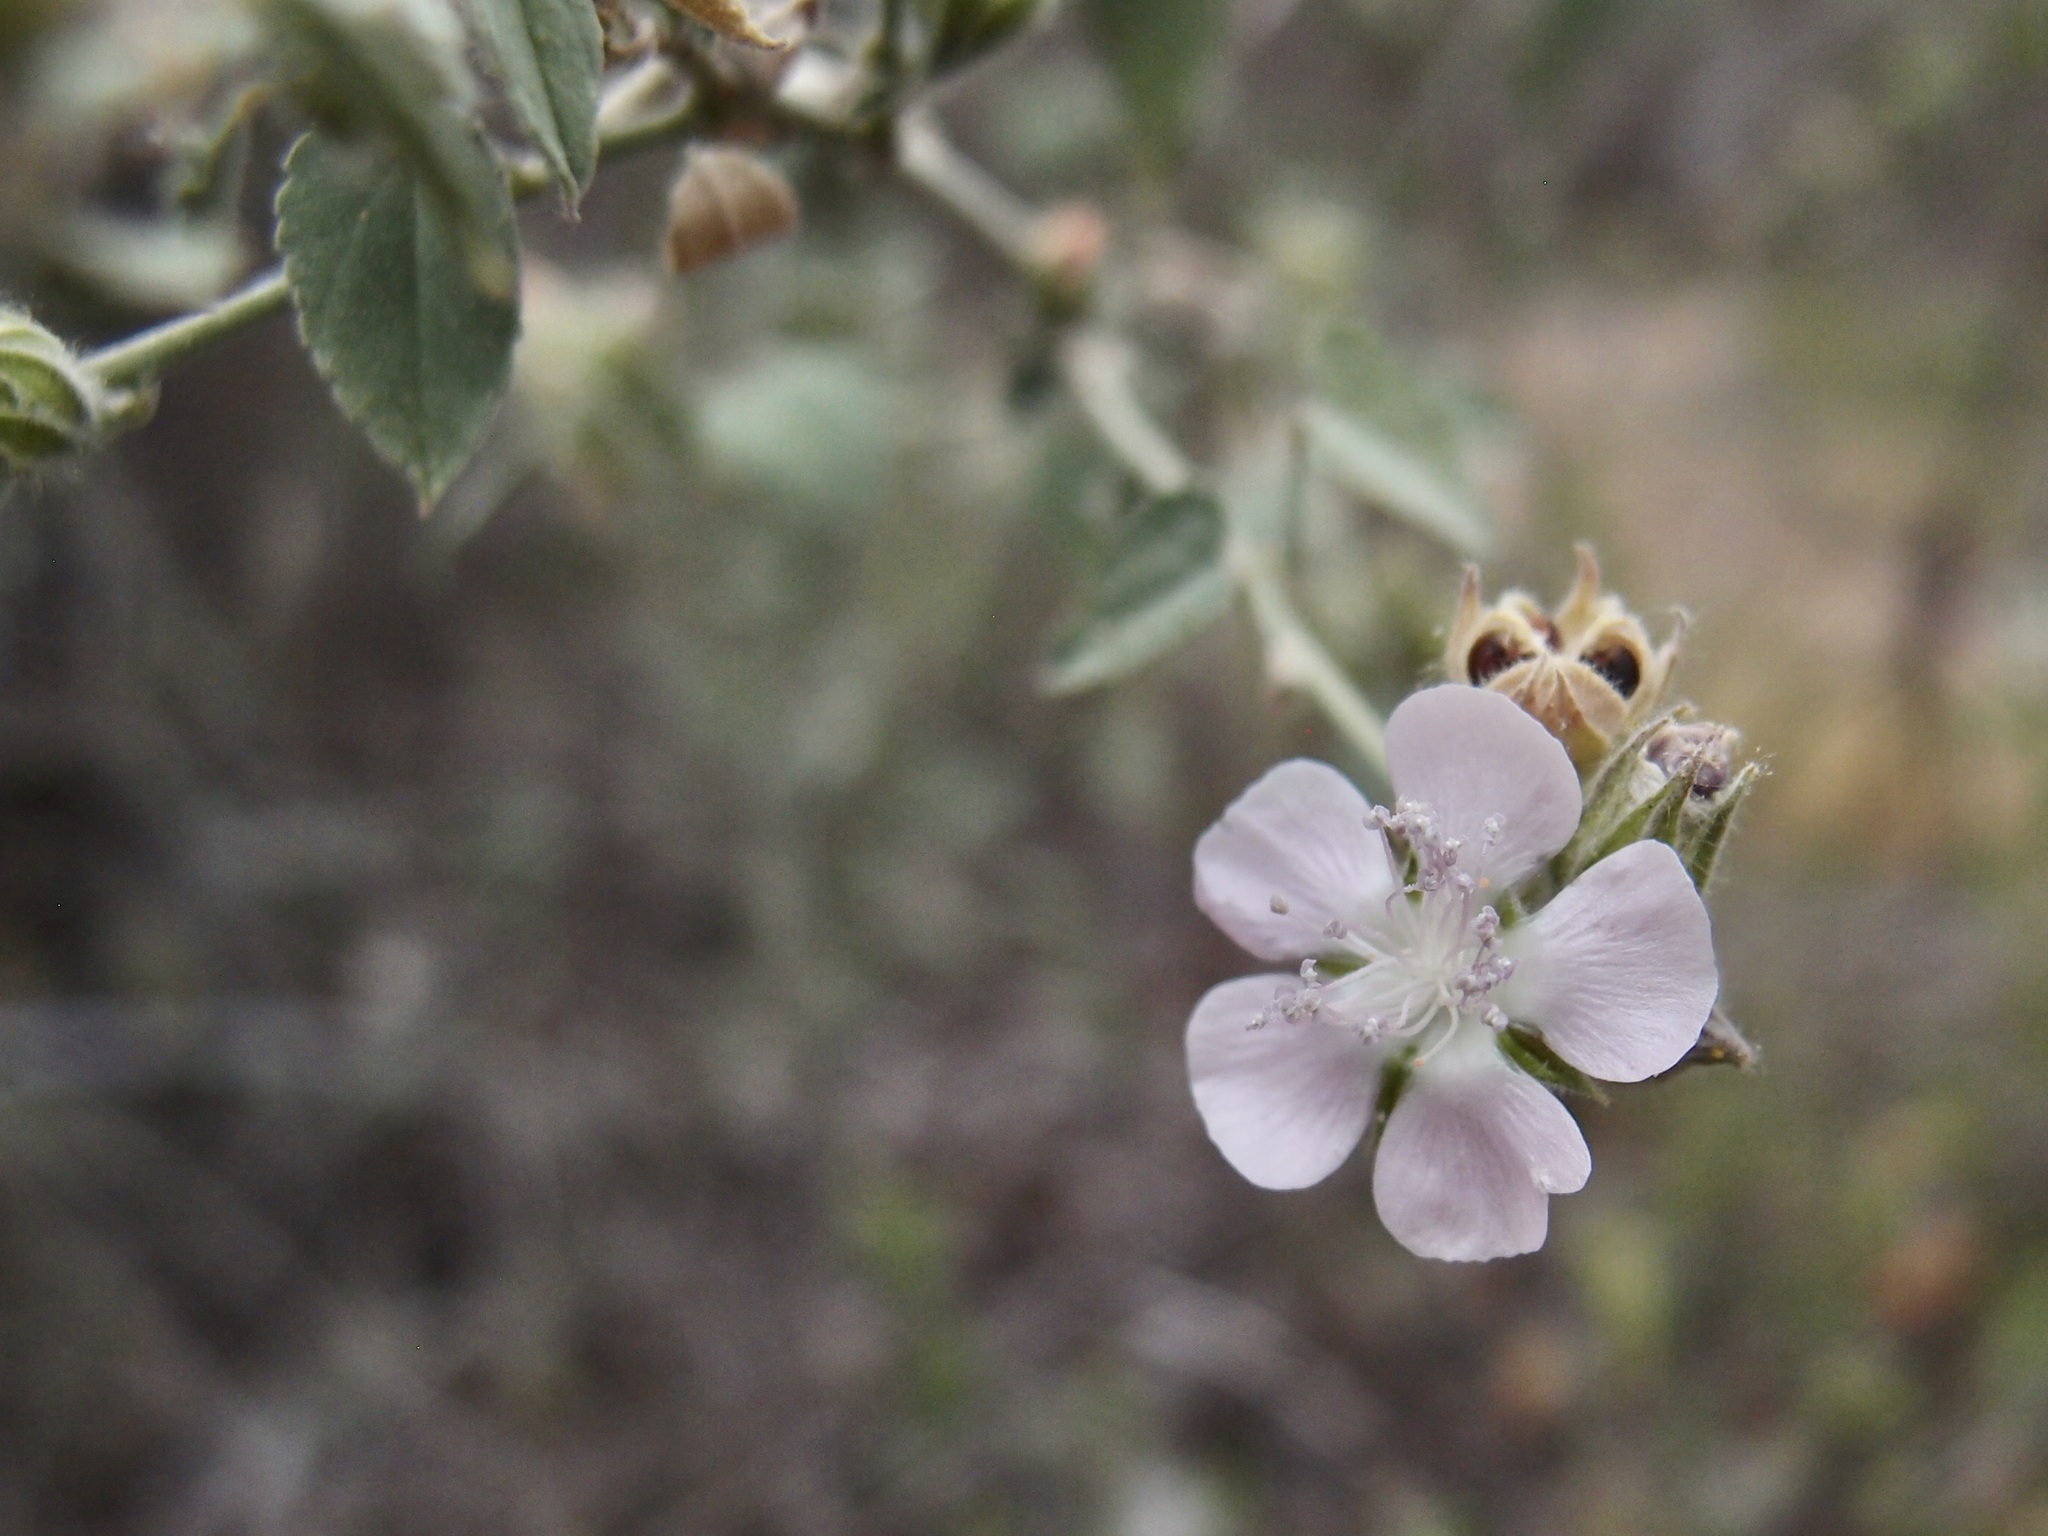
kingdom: Plantae
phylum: Tracheophyta
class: Magnoliopsida
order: Malvales
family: Malvaceae
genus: Bastardiastrum
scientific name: Bastardiastrum cinctum
